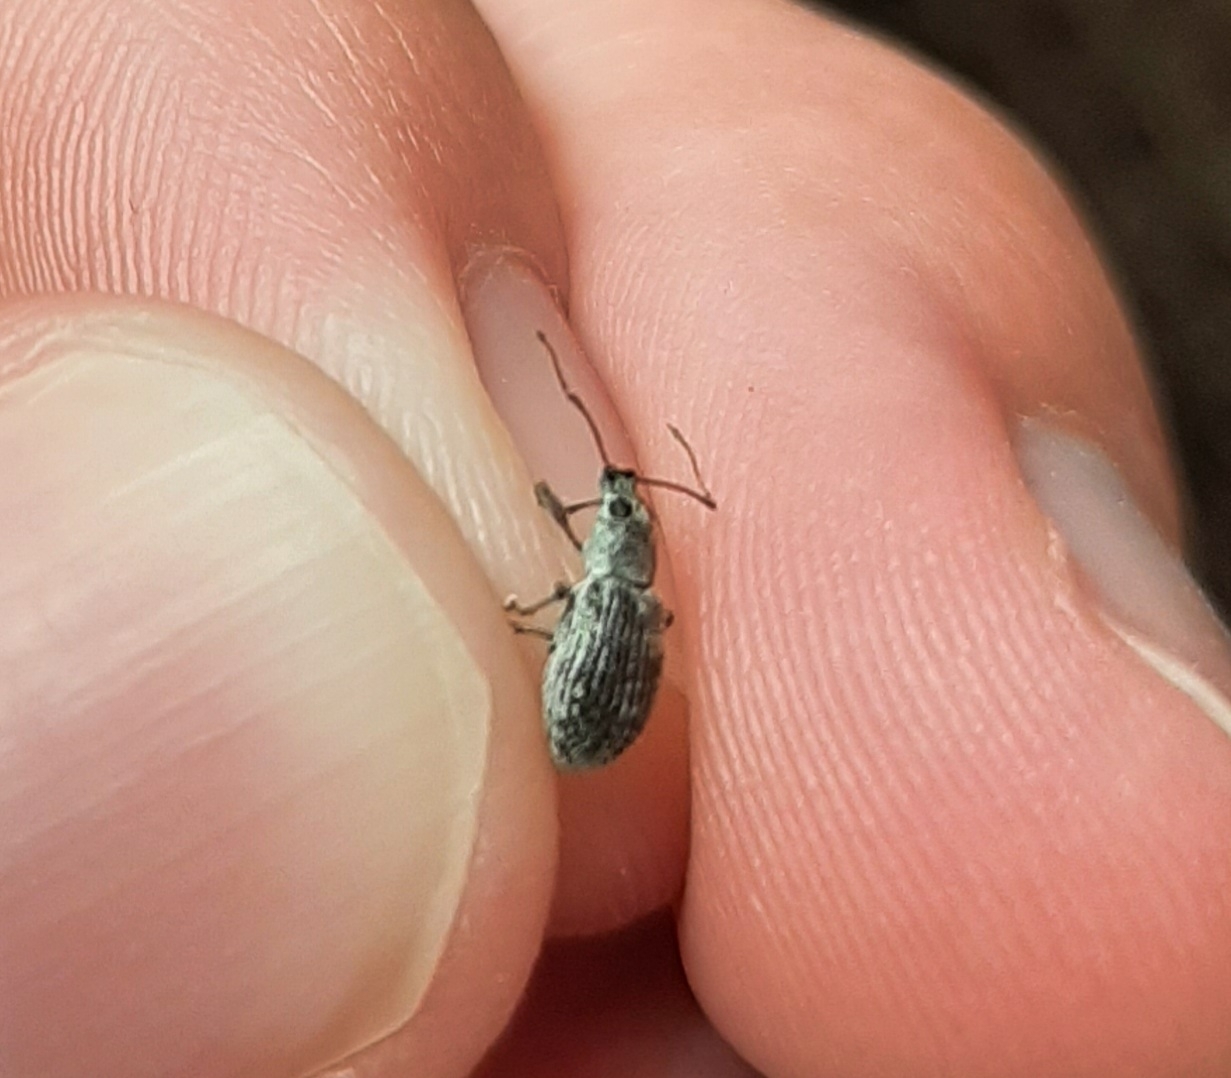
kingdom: Animalia
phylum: Arthropoda
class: Insecta
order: Coleoptera
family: Curculionidae
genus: Cyrtepistomus
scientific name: Cyrtepistomus castaneus
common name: Weevil
